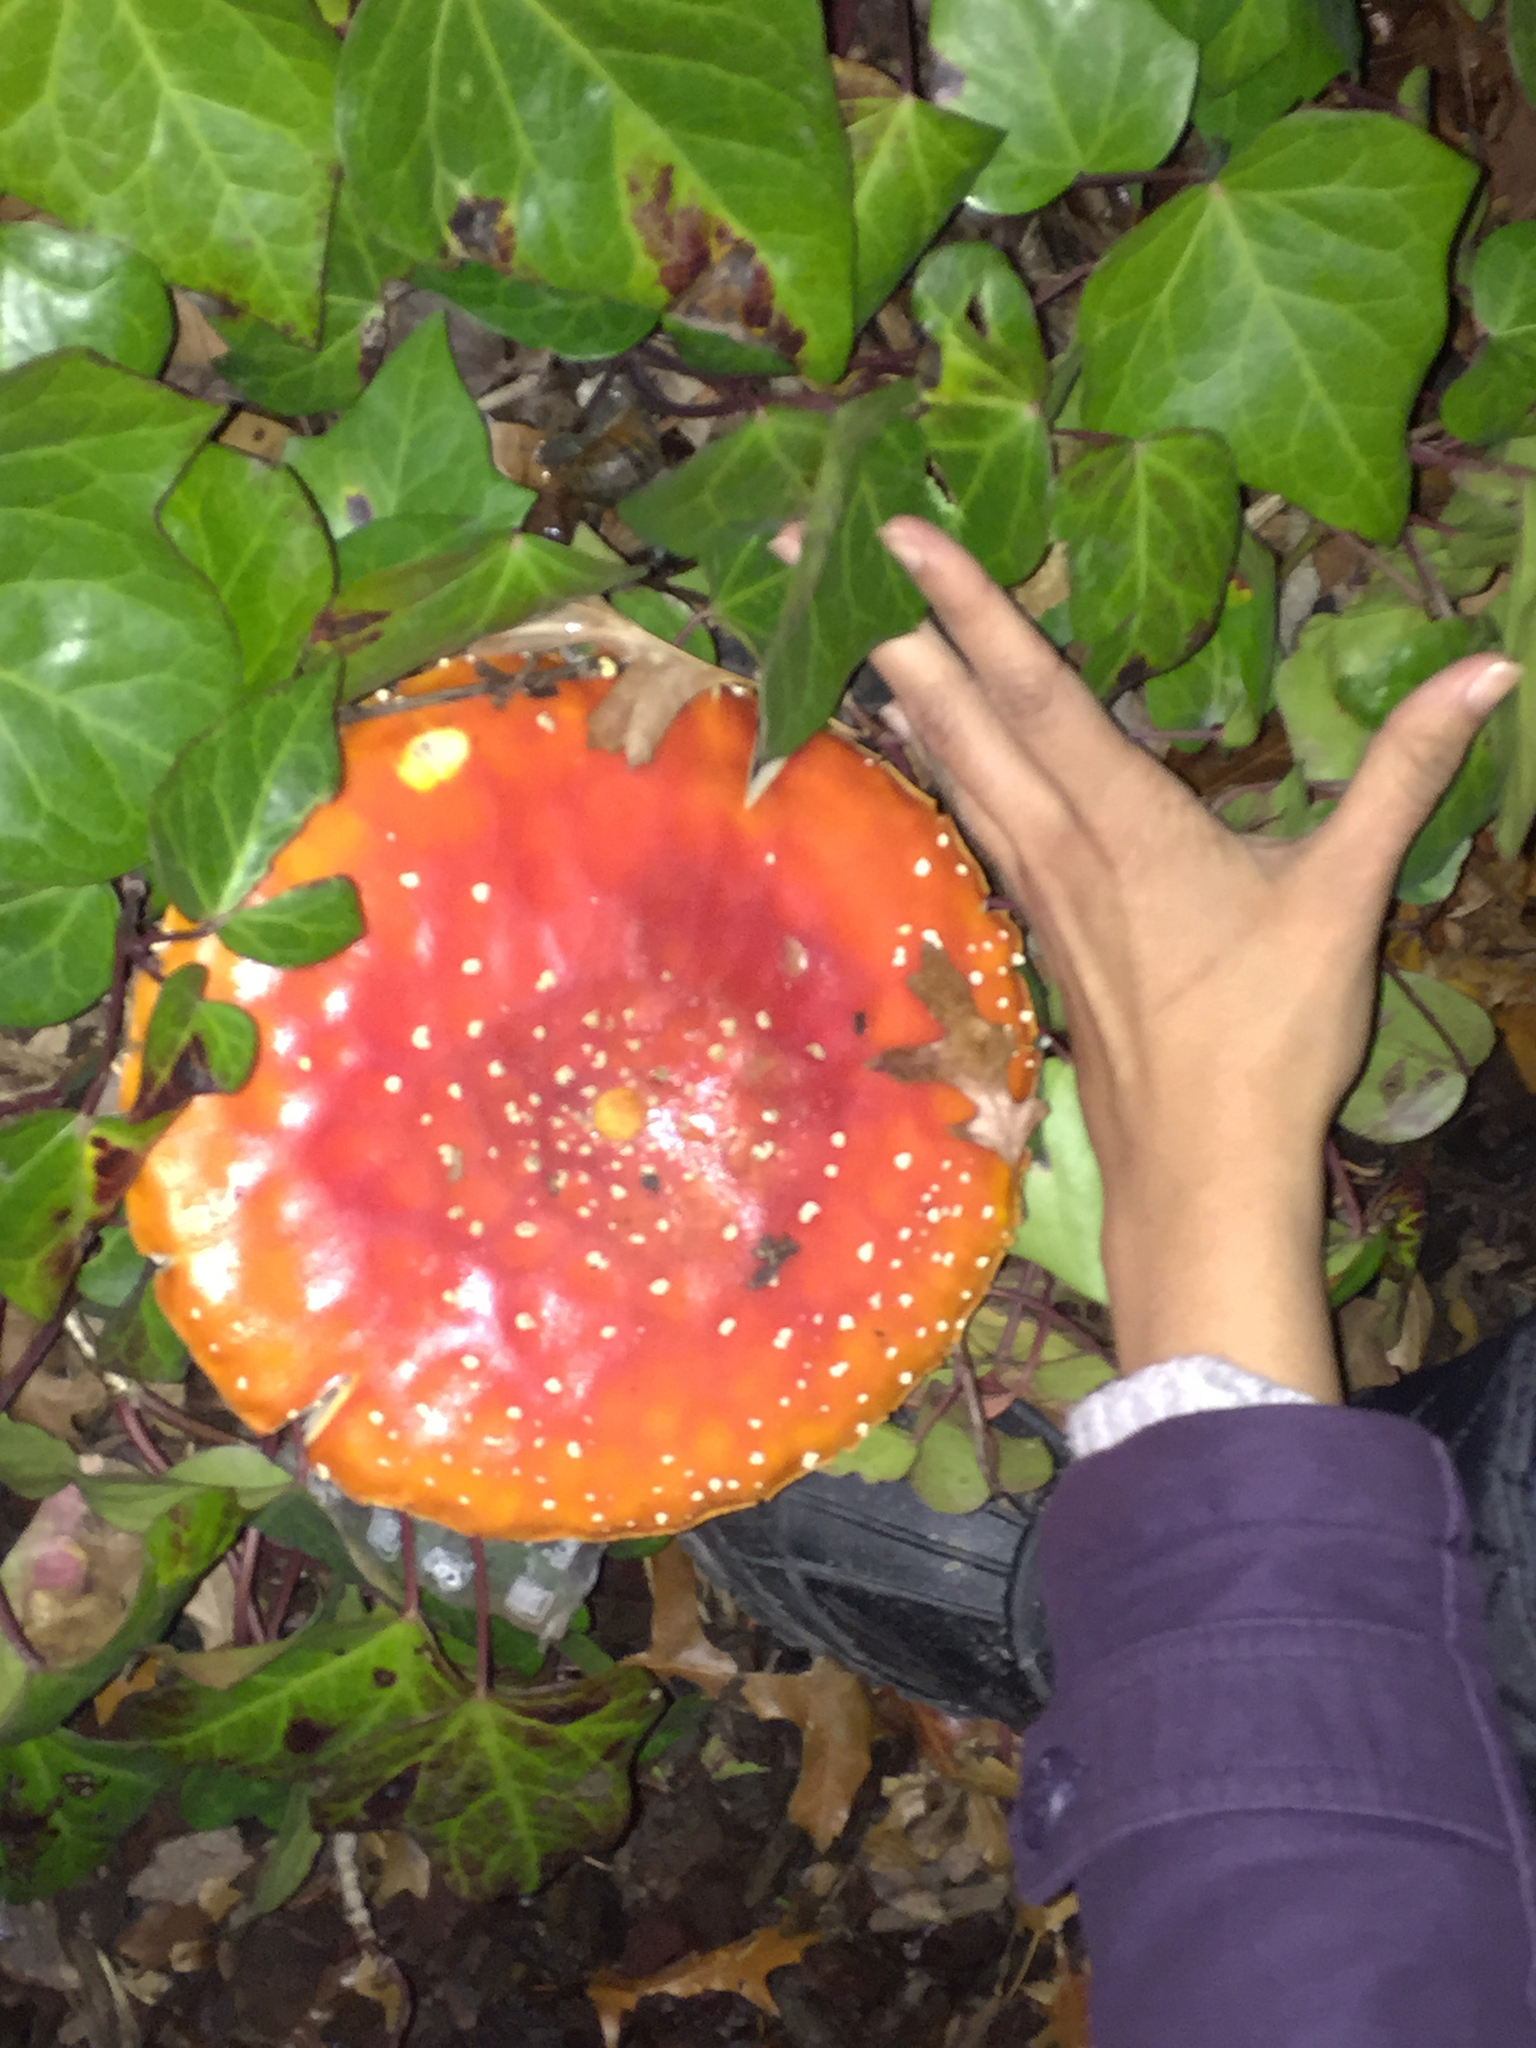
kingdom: Fungi
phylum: Basidiomycota
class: Agaricomycetes
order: Agaricales
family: Amanitaceae
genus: Amanita
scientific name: Amanita muscaria
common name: Fly agaric
